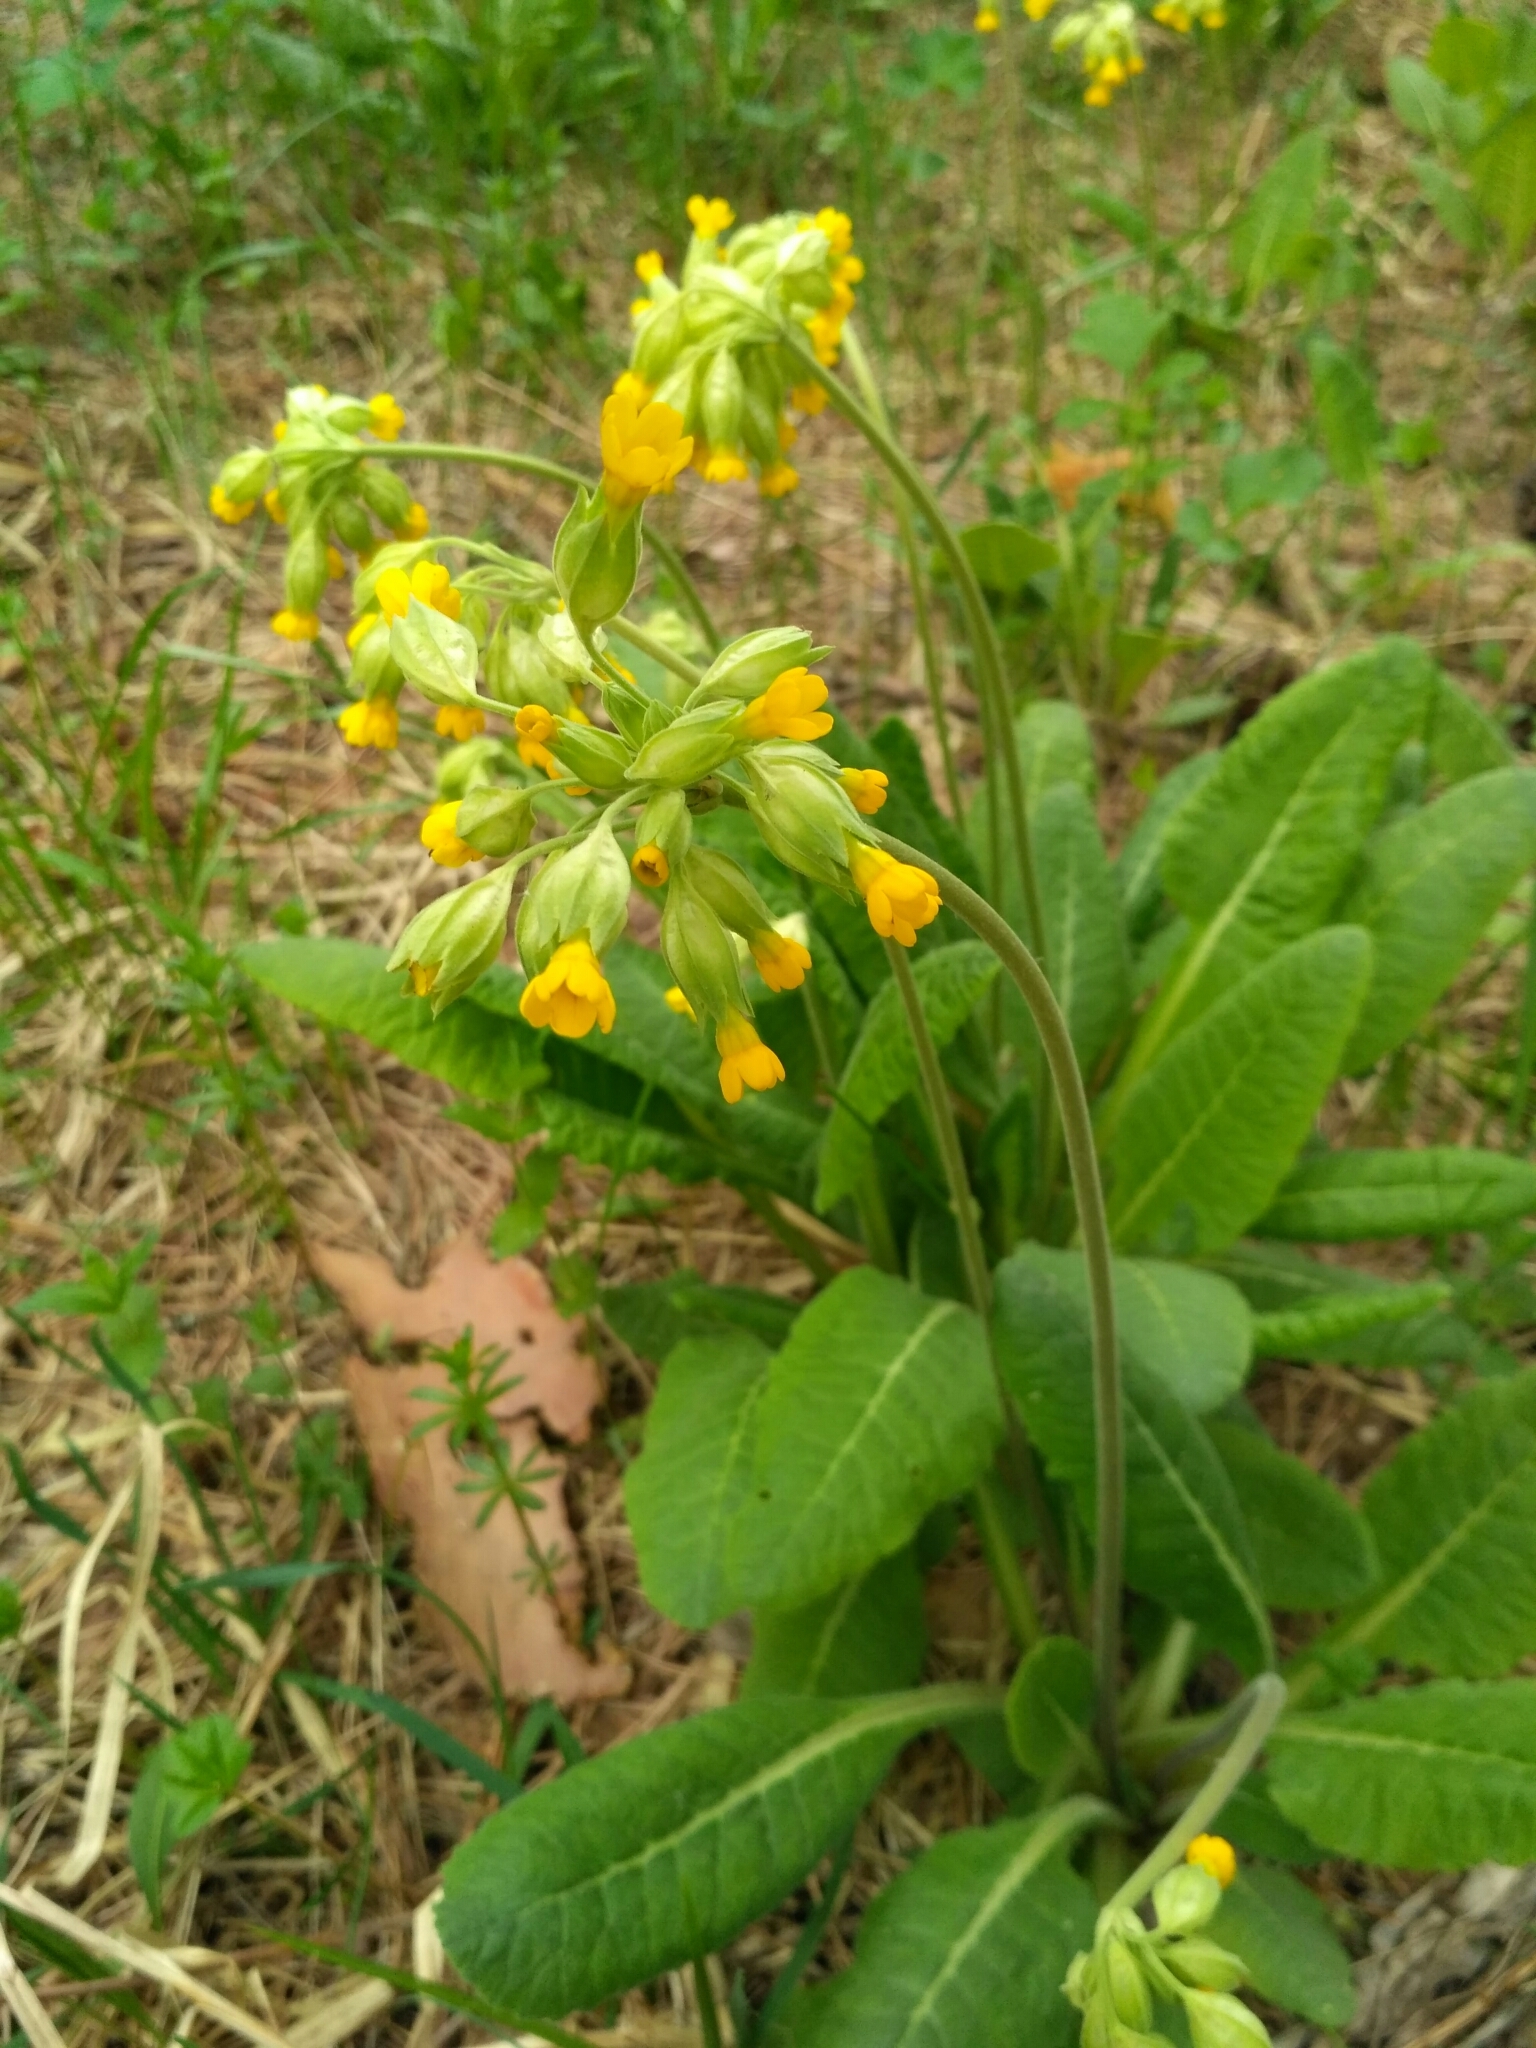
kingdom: Plantae
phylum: Tracheophyta
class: Magnoliopsida
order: Ericales
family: Primulaceae
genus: Primula
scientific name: Primula veris
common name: Cowslip
